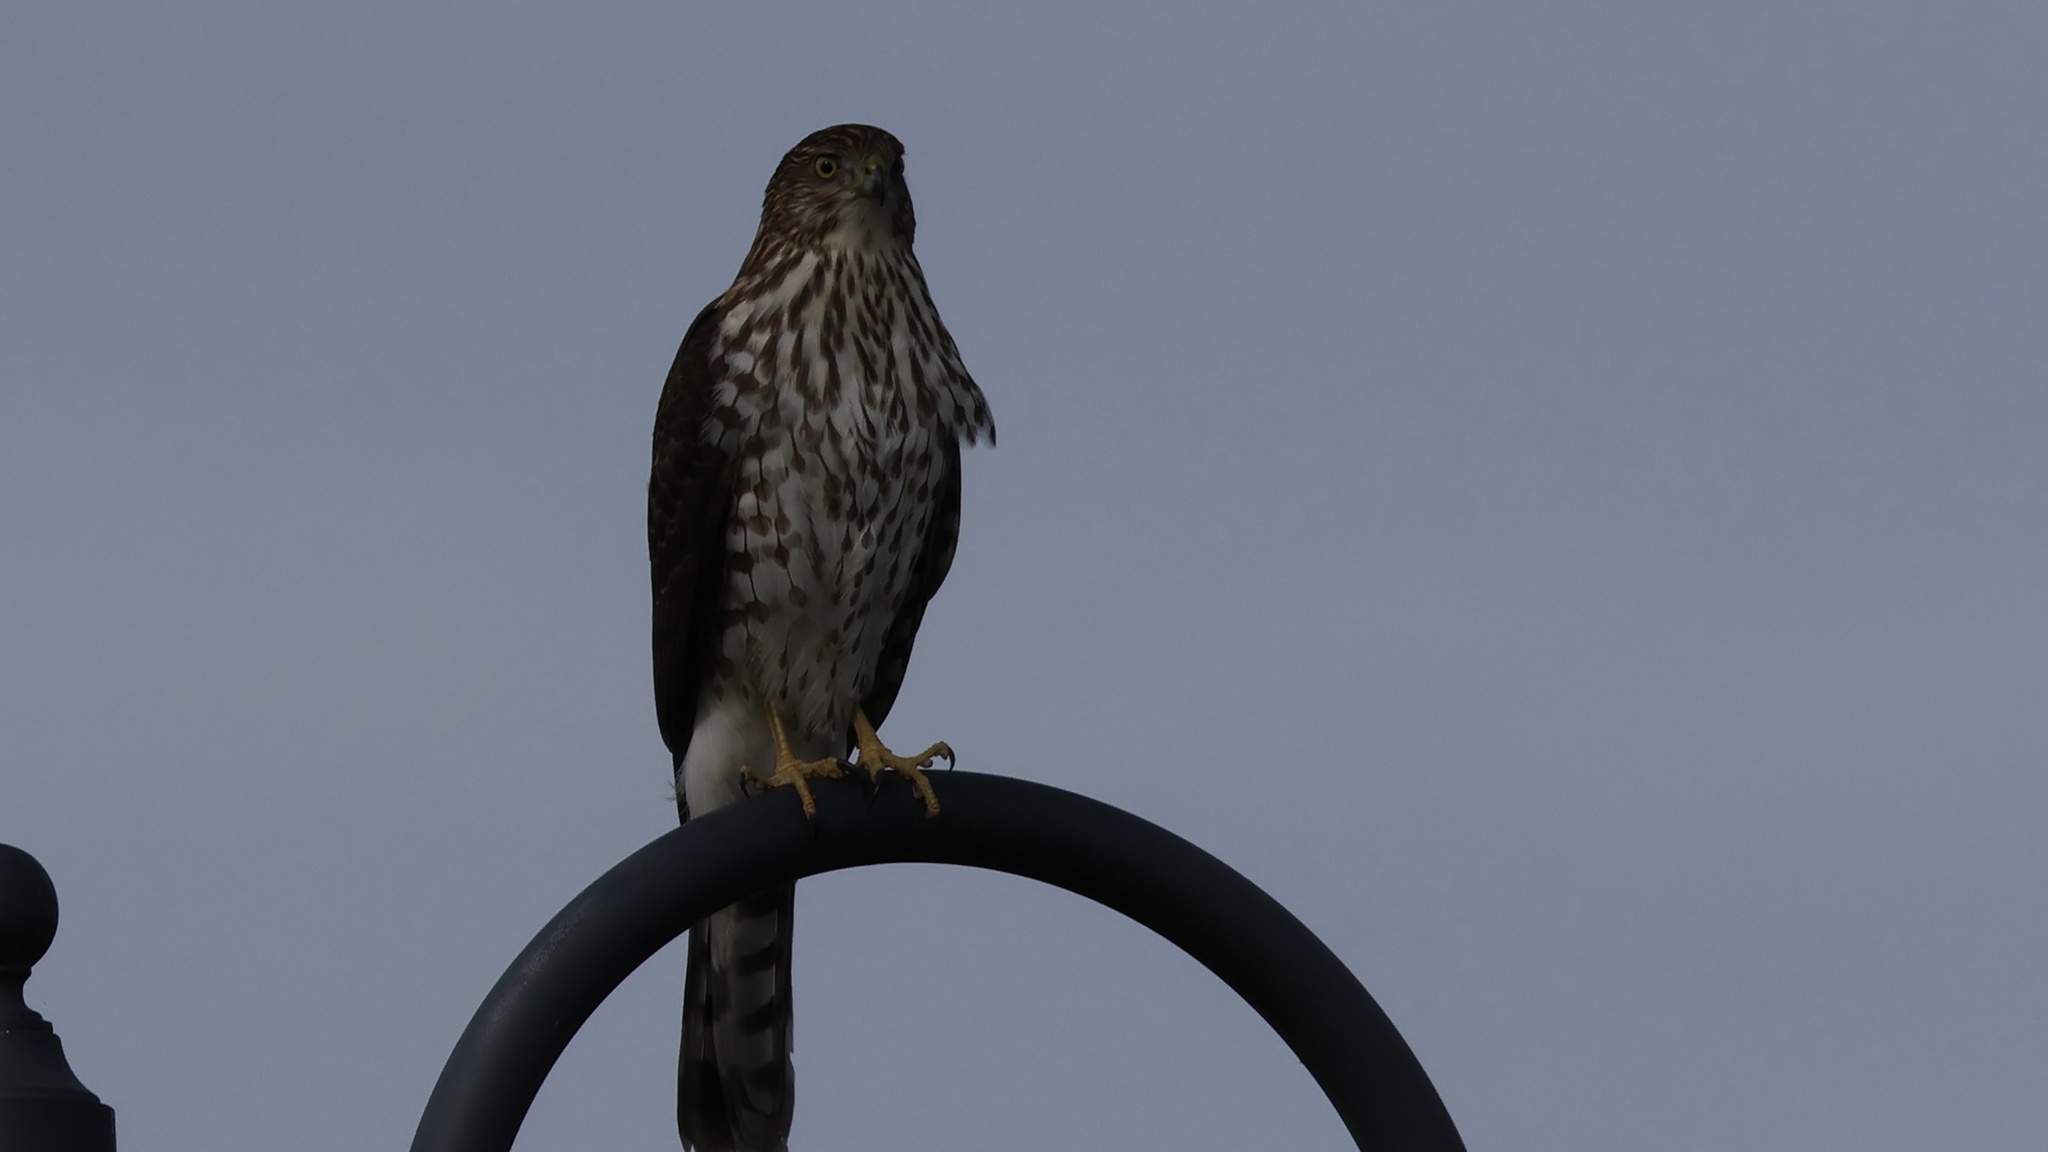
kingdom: Animalia
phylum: Chordata
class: Aves
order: Accipitriformes
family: Accipitridae
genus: Accipiter
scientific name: Accipiter cooperii
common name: Cooper's hawk
